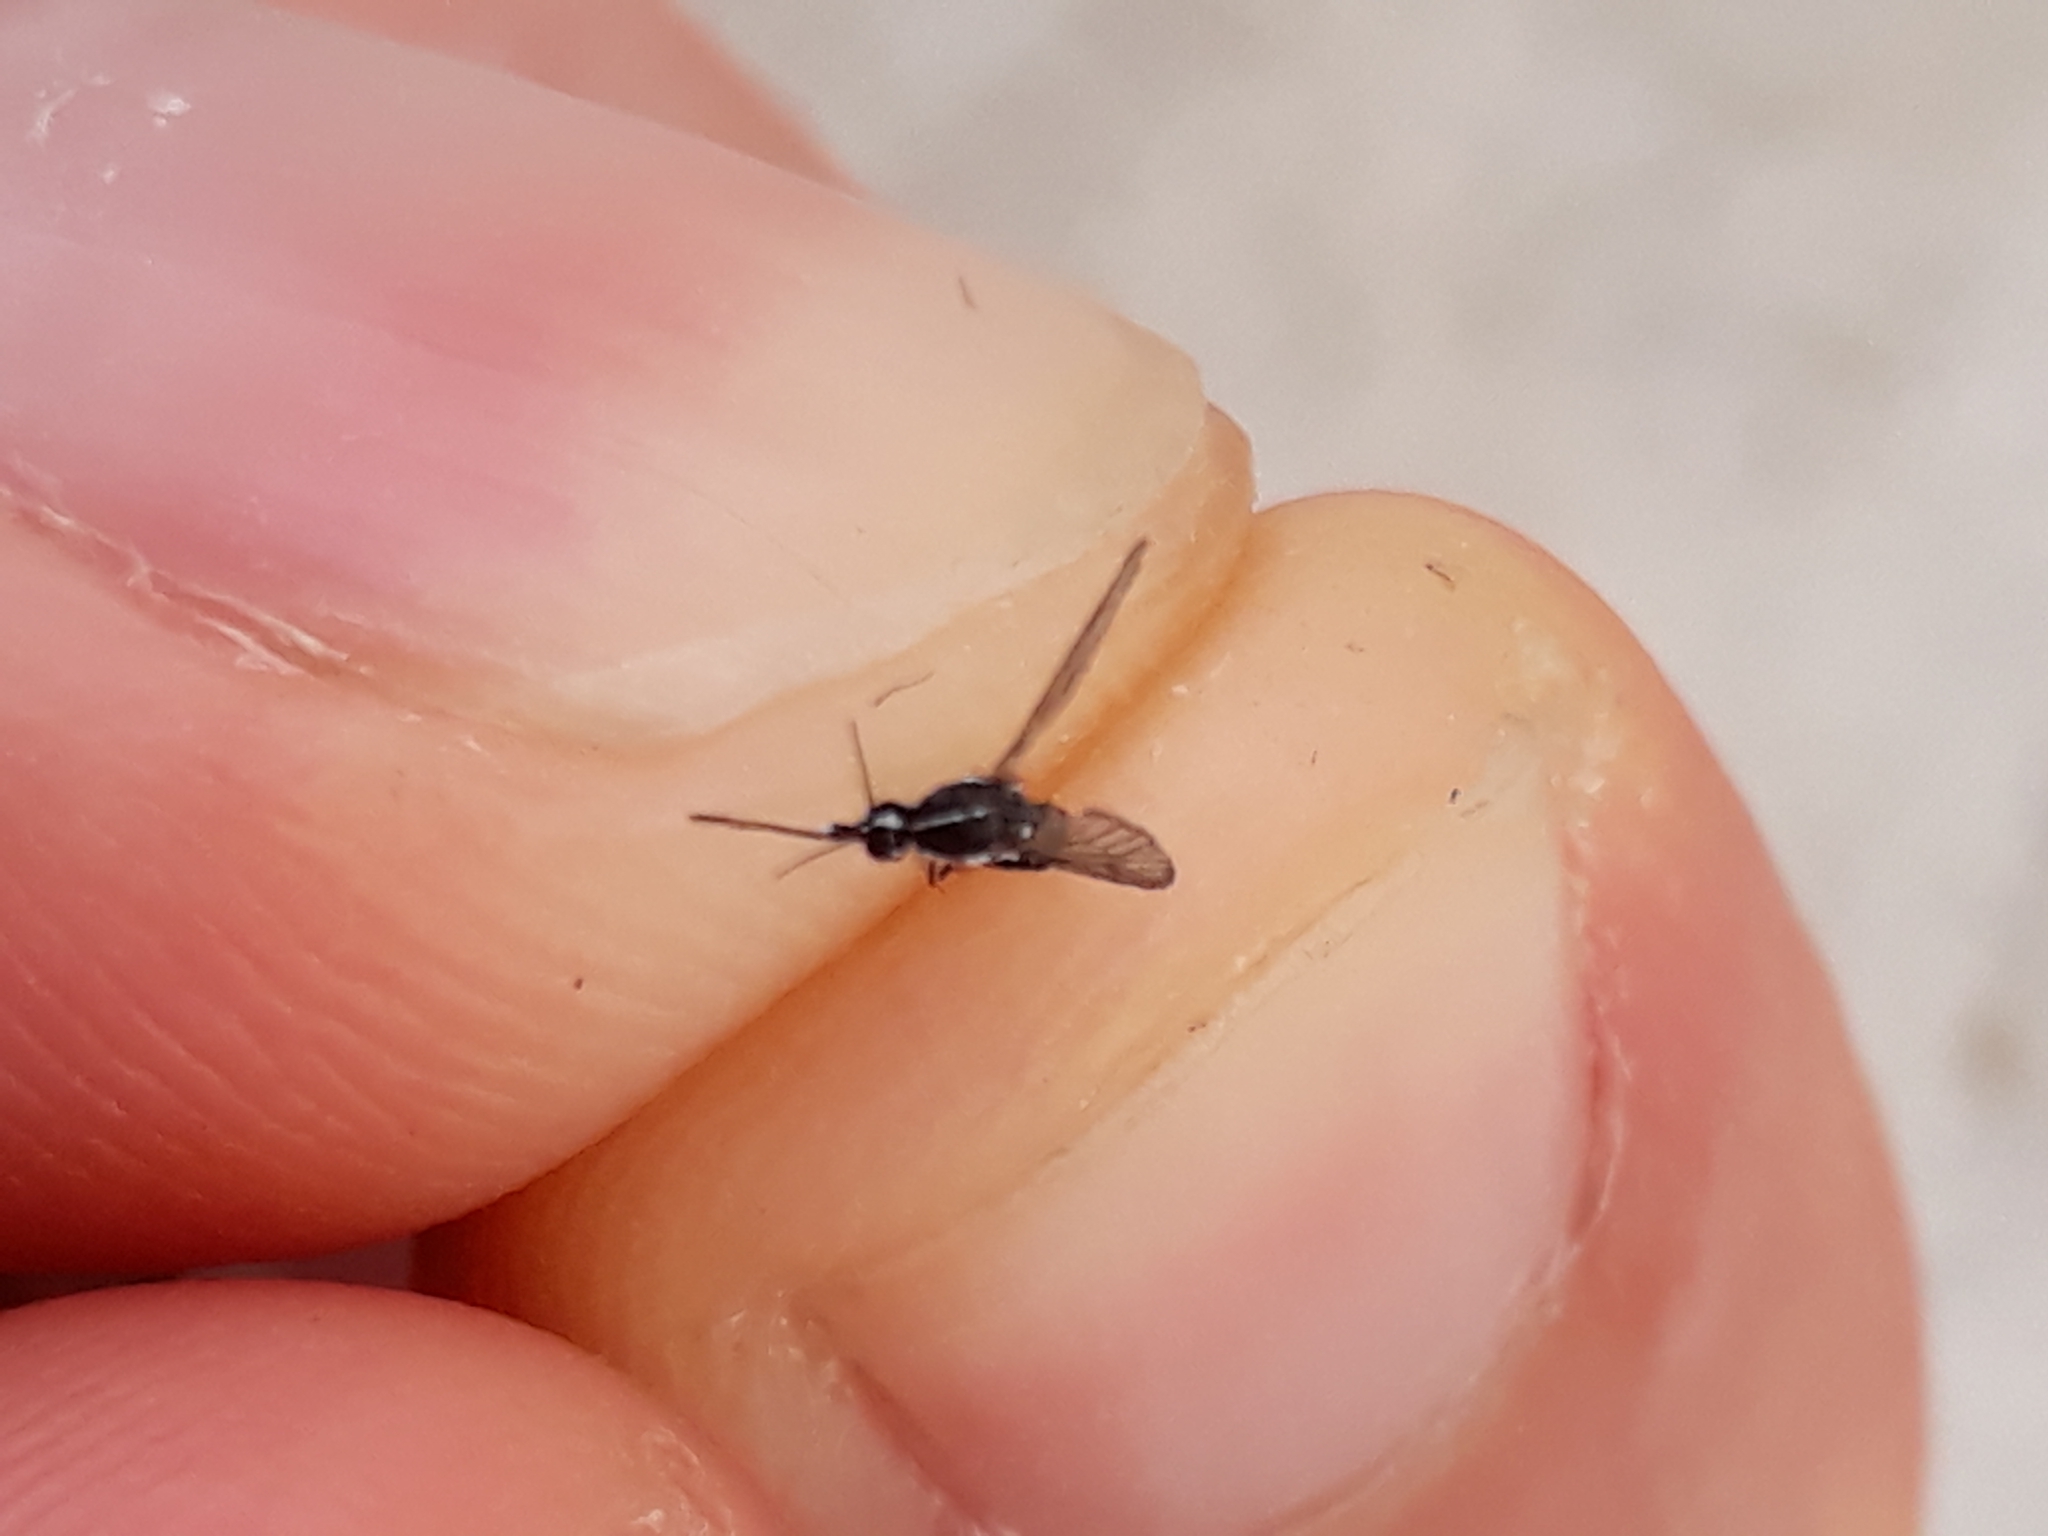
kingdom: Animalia
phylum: Arthropoda
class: Insecta
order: Diptera
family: Culicidae
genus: Aedes
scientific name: Aedes albopictus
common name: Tiger mosquito
